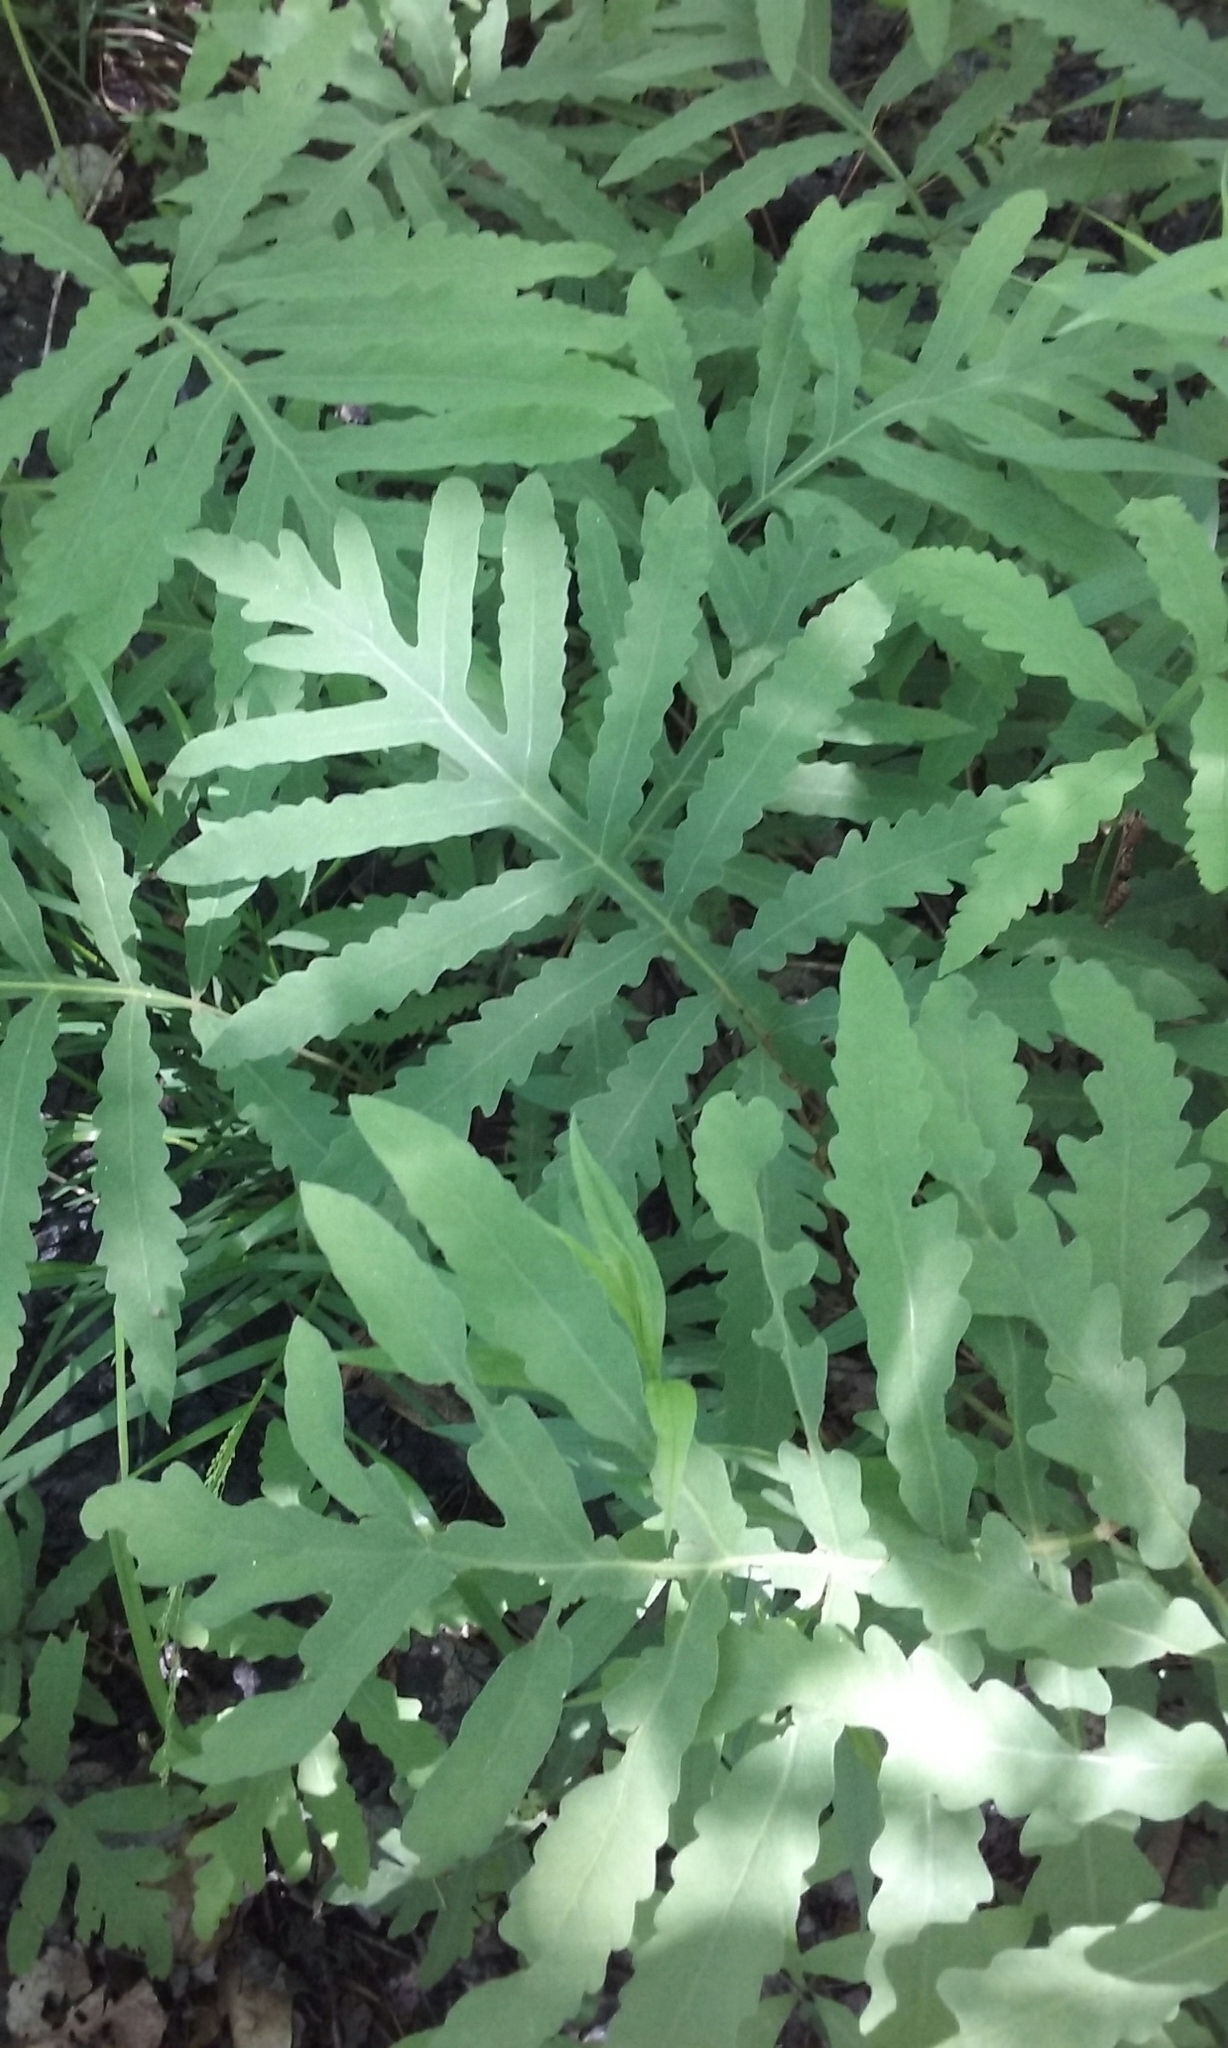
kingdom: Plantae
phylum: Tracheophyta
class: Polypodiopsida
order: Polypodiales
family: Onocleaceae
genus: Onoclea
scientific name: Onoclea sensibilis
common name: Sensitive fern
